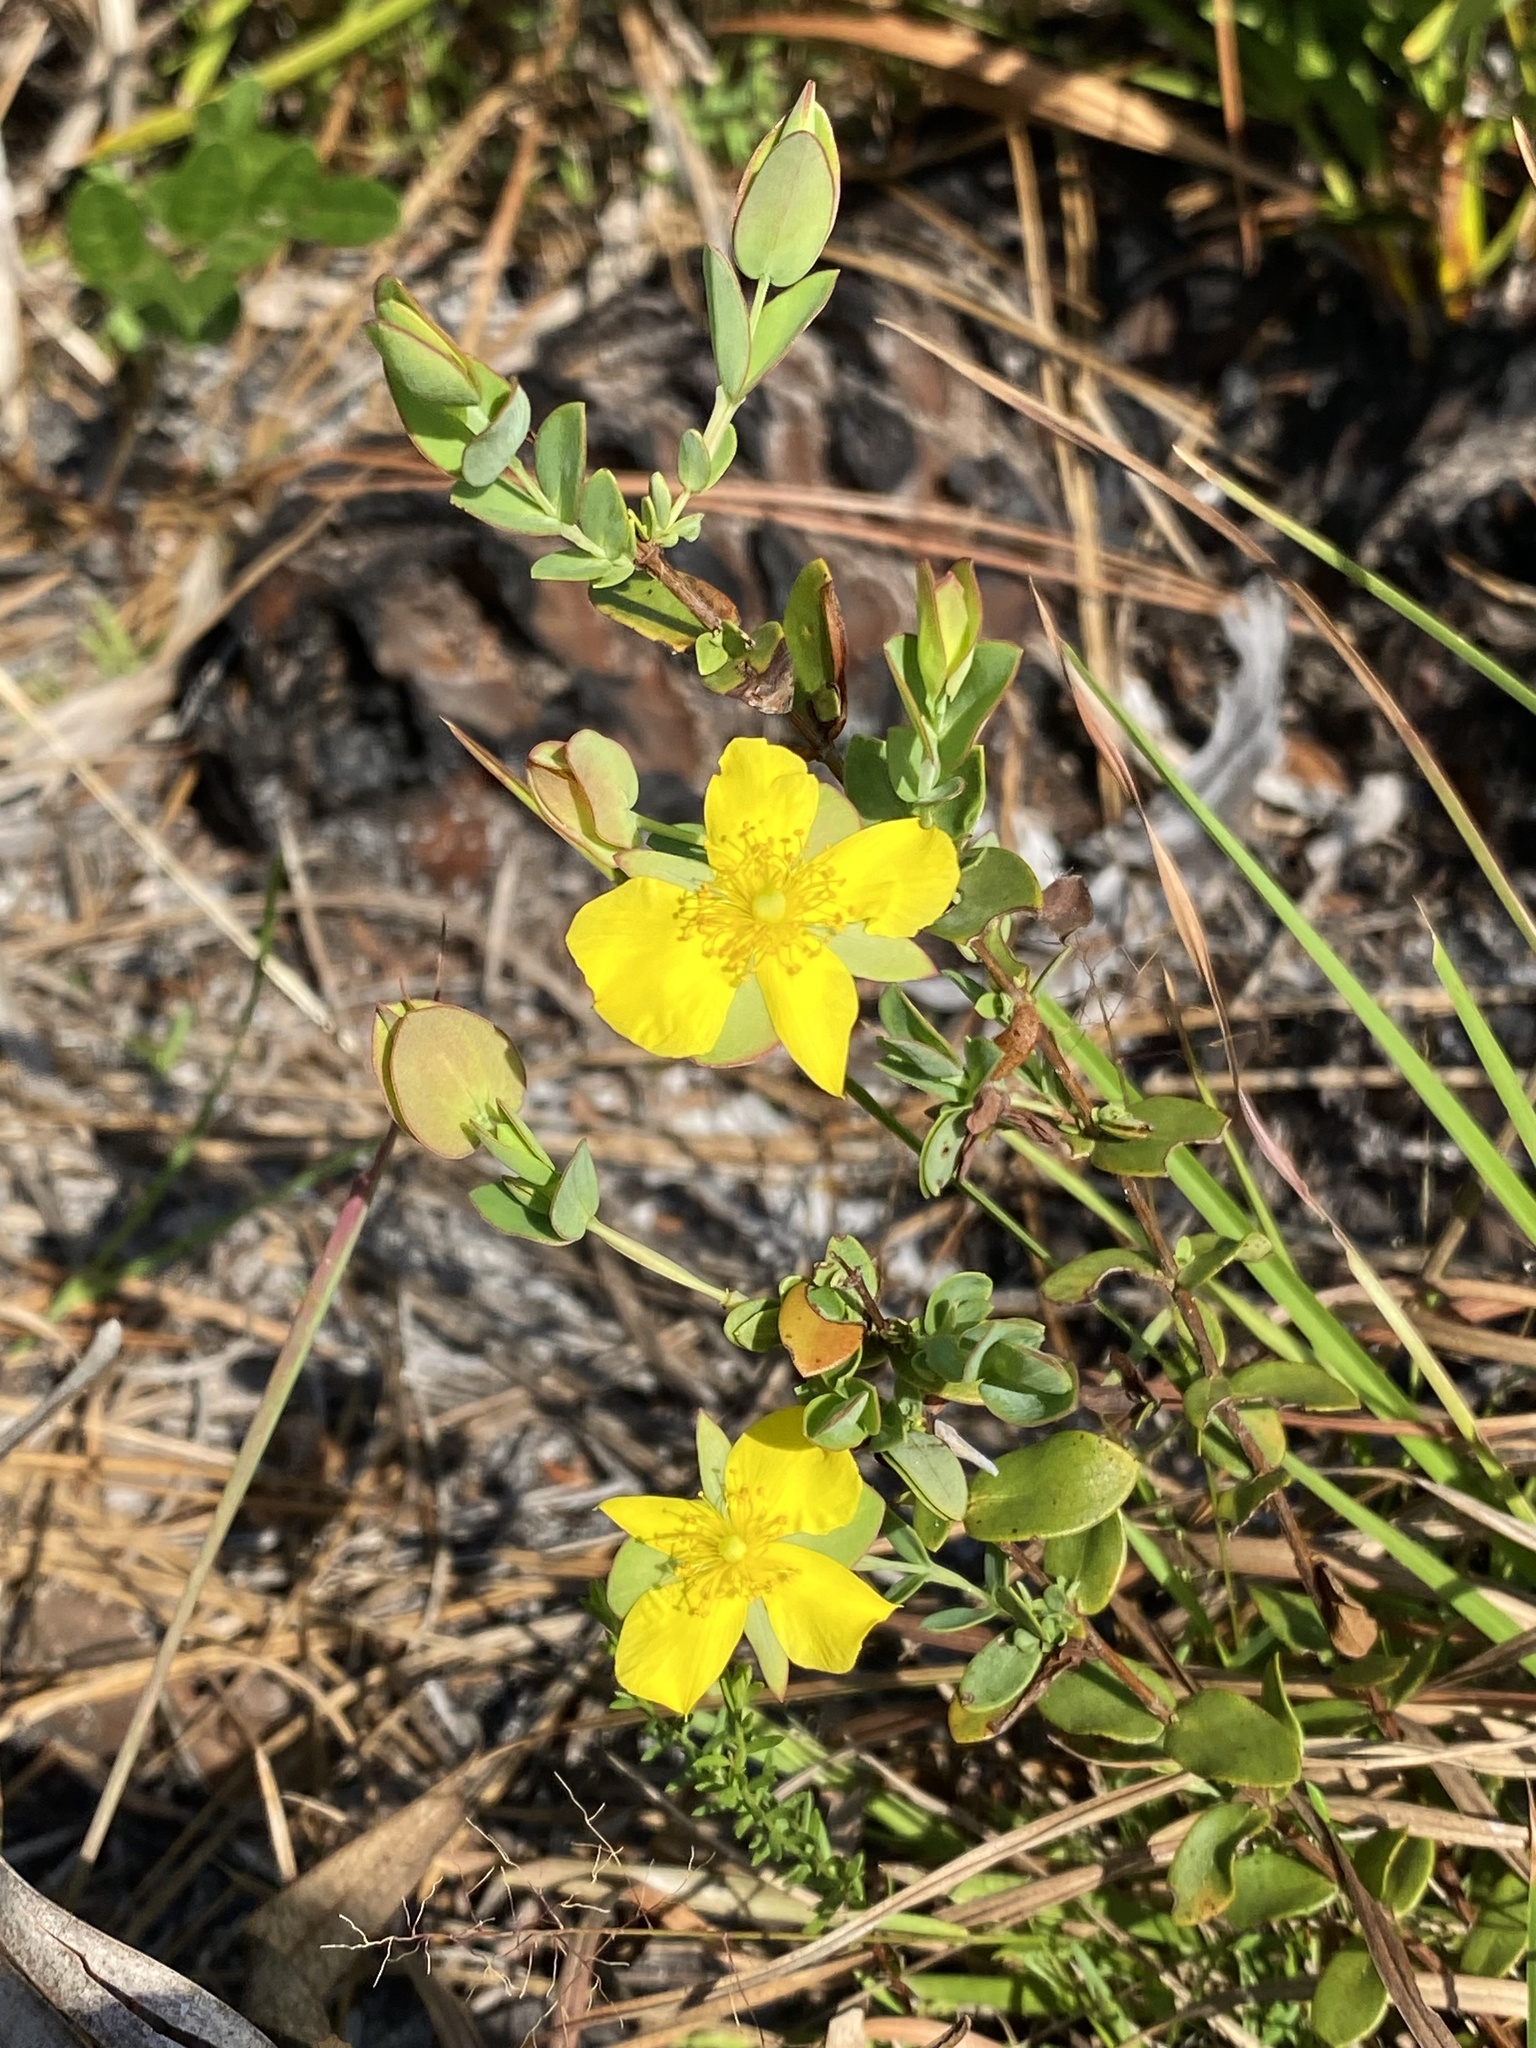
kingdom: Plantae
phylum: Tracheophyta
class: Magnoliopsida
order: Malpighiales
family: Hypericaceae
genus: Hypericum
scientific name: Hypericum tetrapetalum
